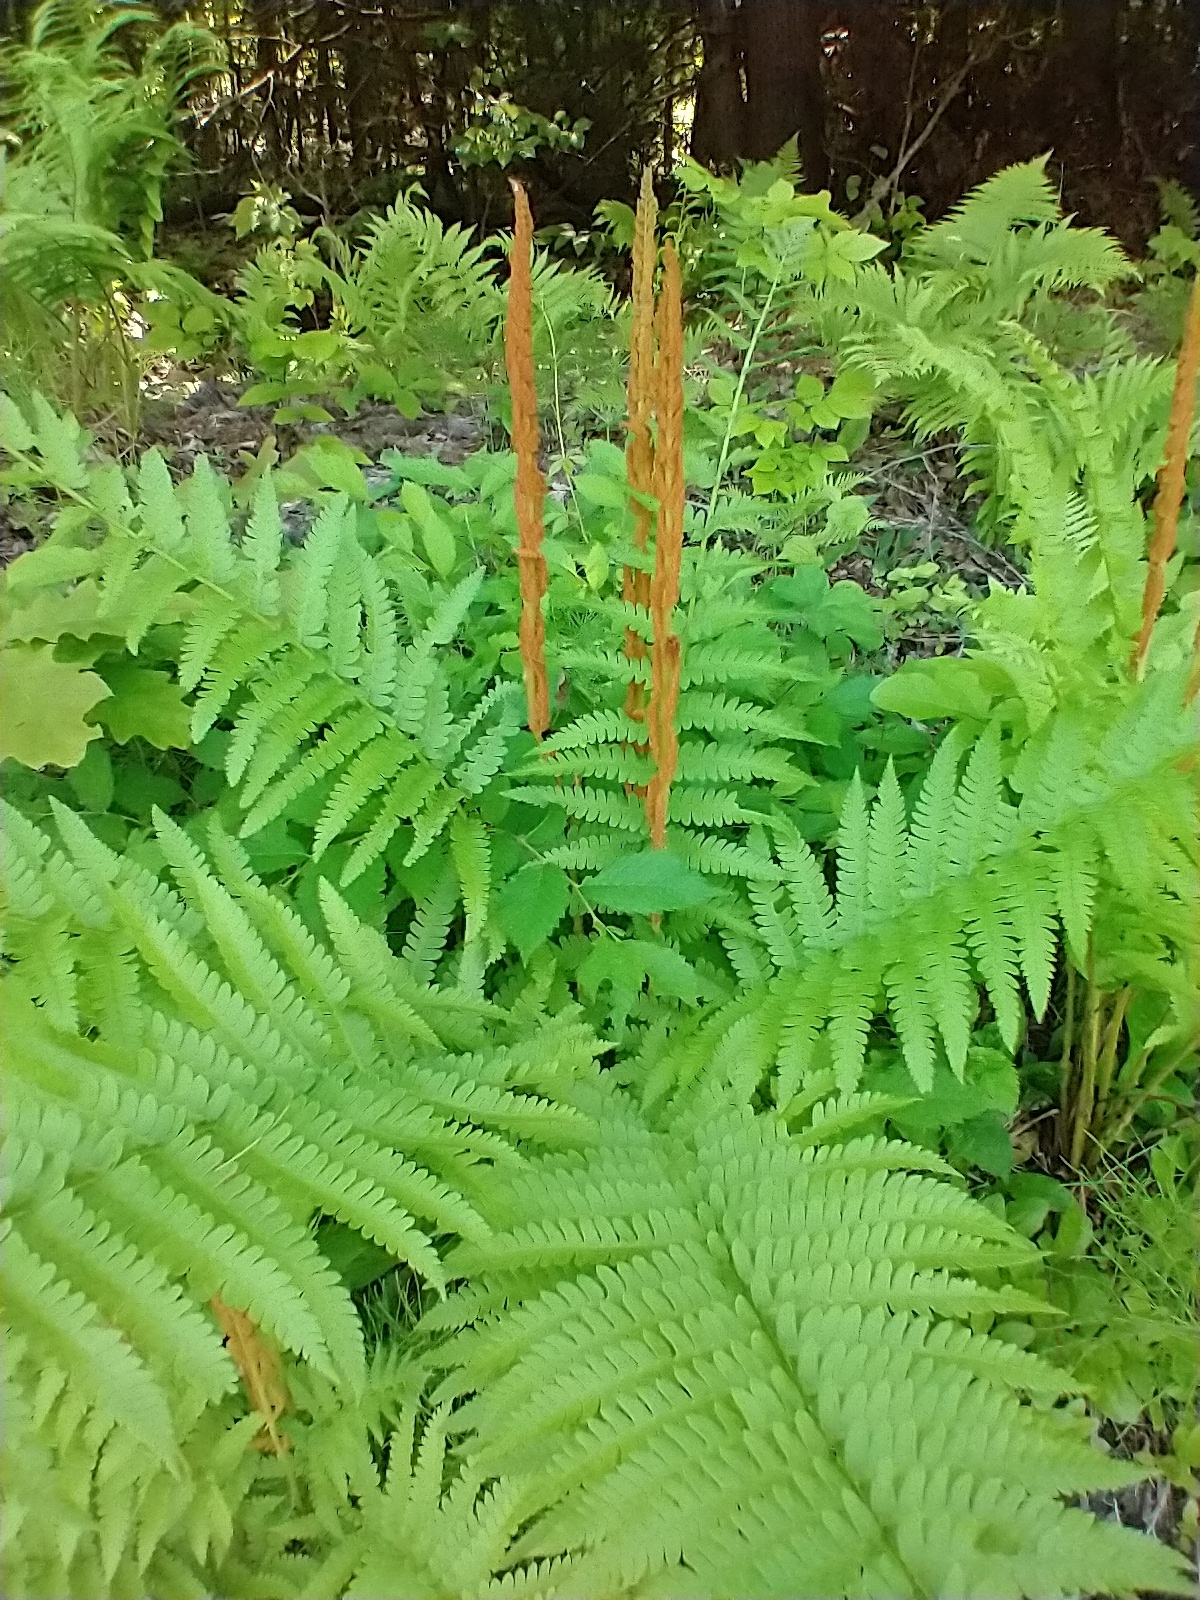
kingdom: Plantae
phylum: Tracheophyta
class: Polypodiopsida
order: Osmundales
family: Osmundaceae
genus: Osmundastrum
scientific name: Osmundastrum cinnamomeum
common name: Cinnamon fern
